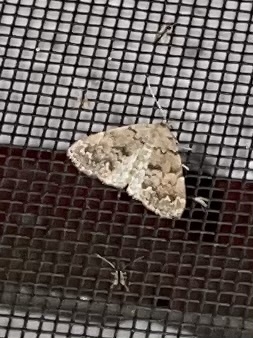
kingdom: Animalia
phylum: Arthropoda
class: Insecta
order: Lepidoptera
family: Erebidae
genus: Idia
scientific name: Idia aemula
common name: Common idia moth
